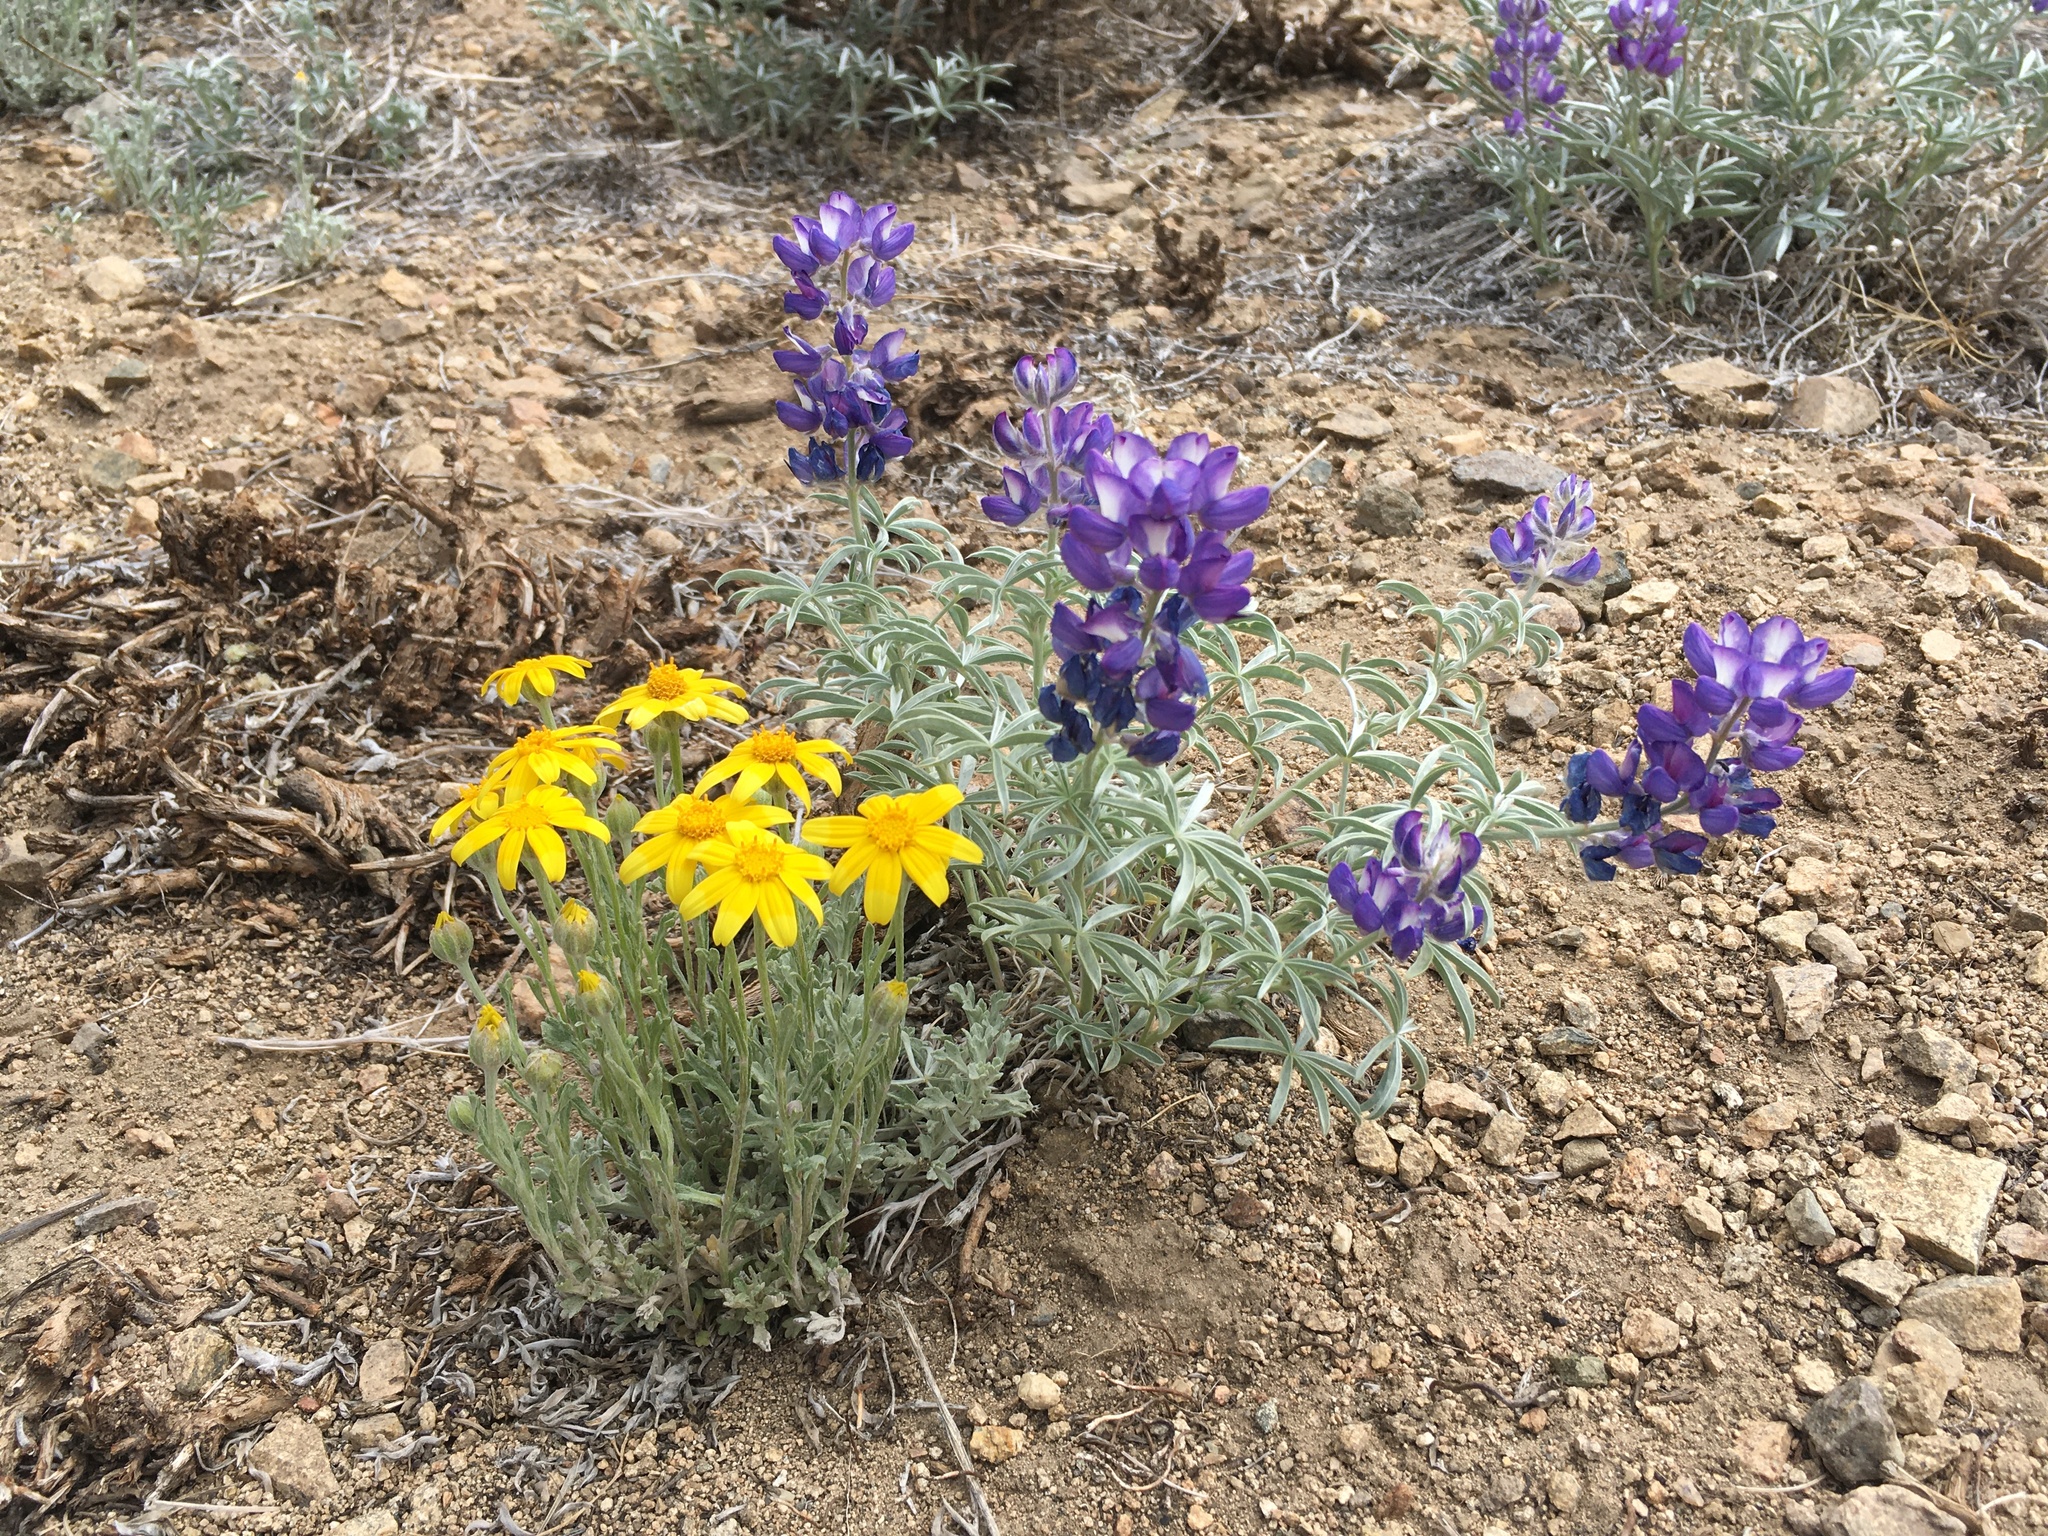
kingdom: Plantae
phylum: Tracheophyta
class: Magnoliopsida
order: Fabales
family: Fabaceae
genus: Lupinus
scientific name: Lupinus argenteus
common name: Silvery lupine
